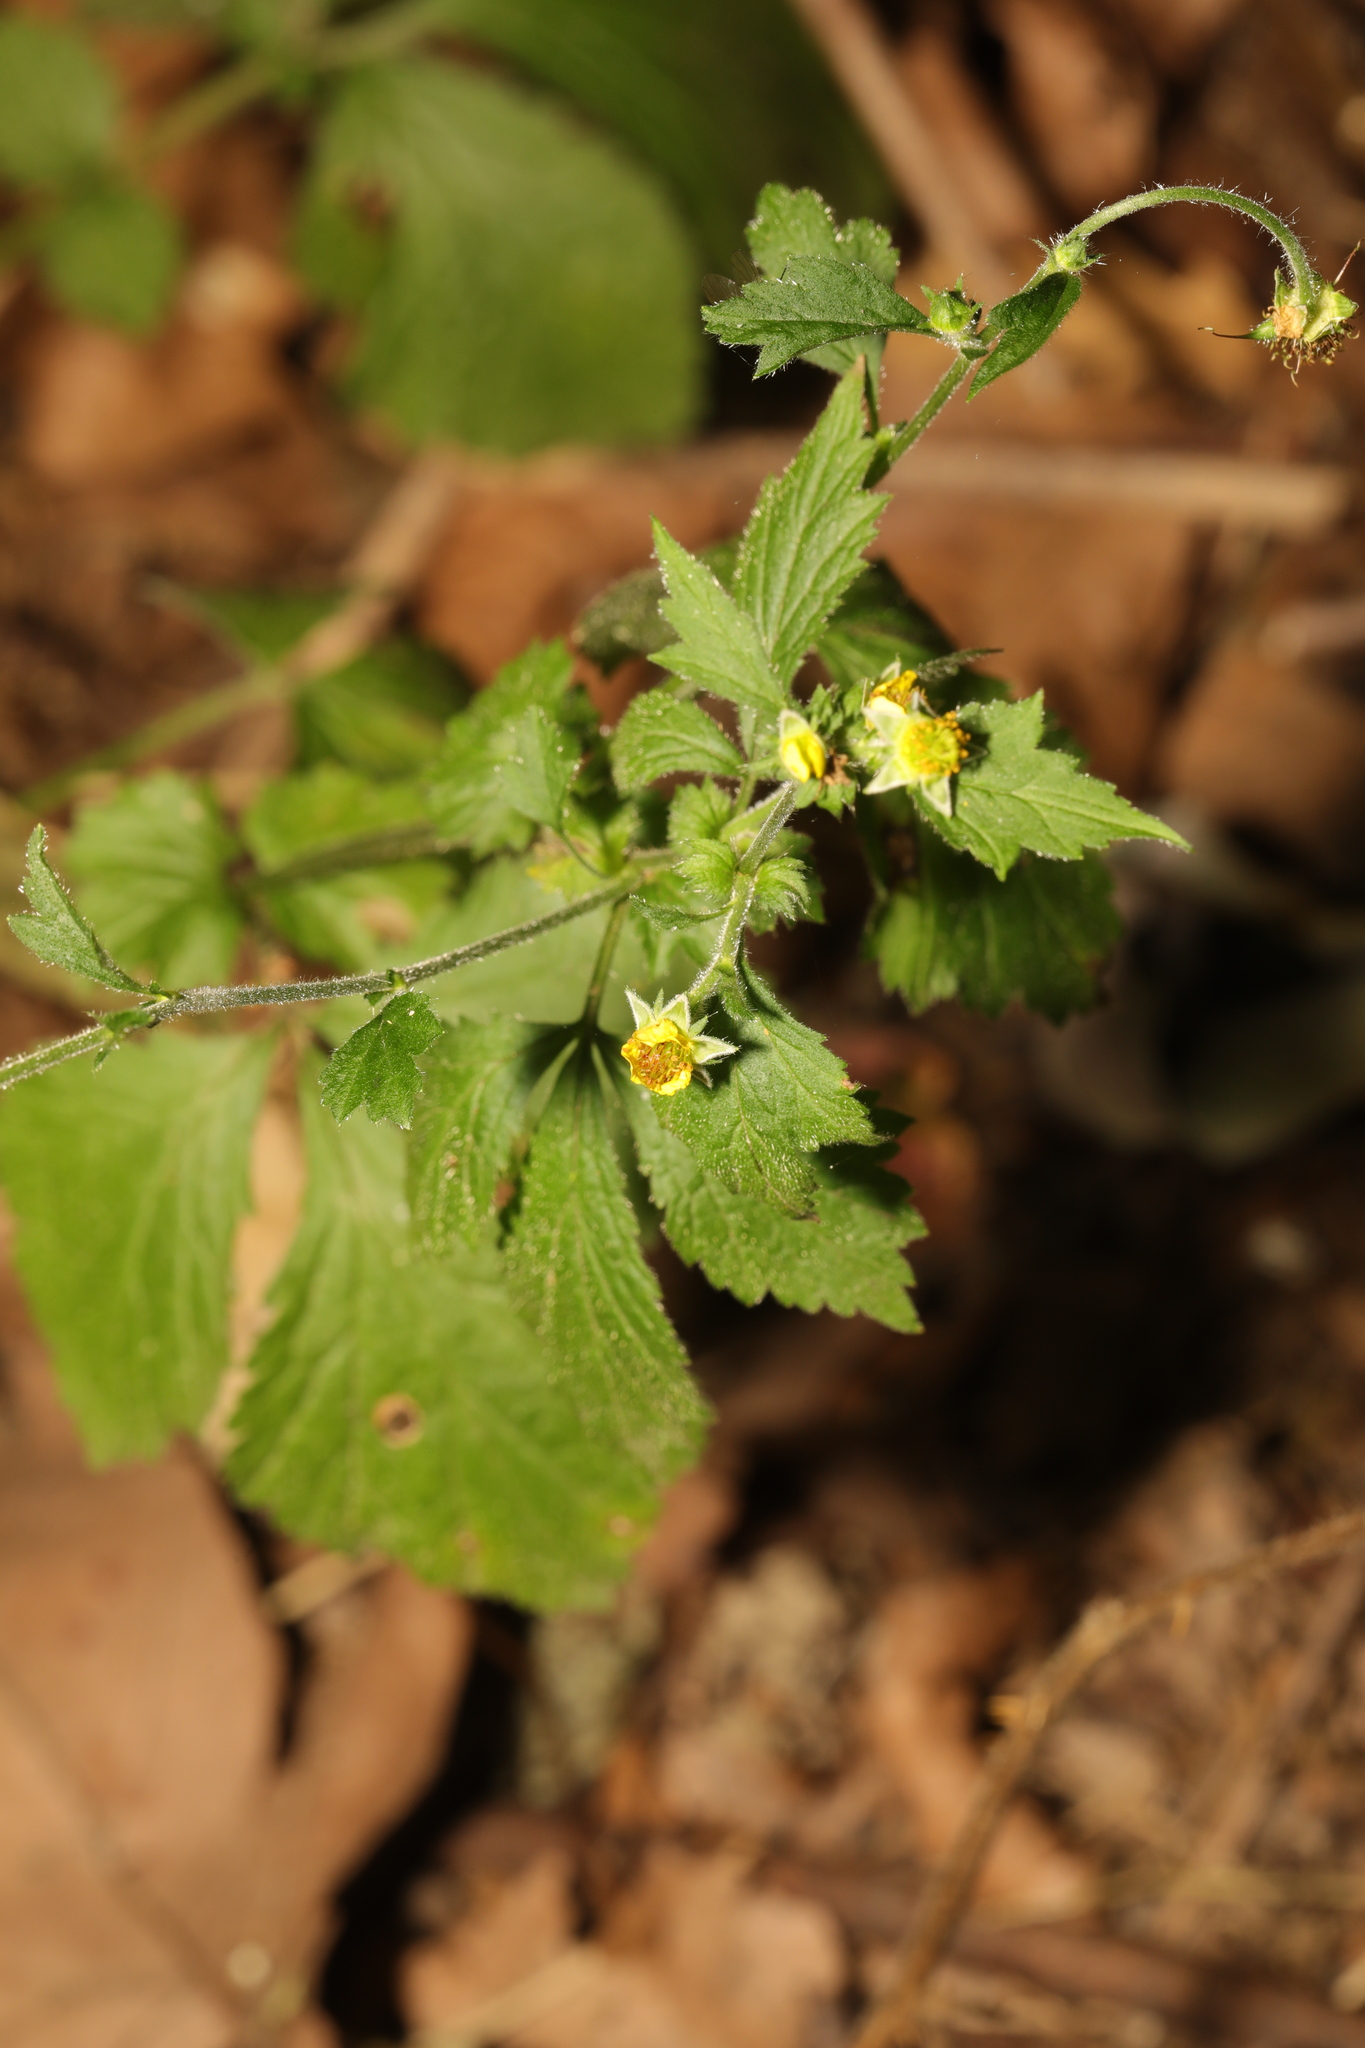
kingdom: Plantae
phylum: Tracheophyta
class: Magnoliopsida
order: Rosales
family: Rosaceae
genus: Geum
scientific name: Geum urbanum
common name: Wood avens
